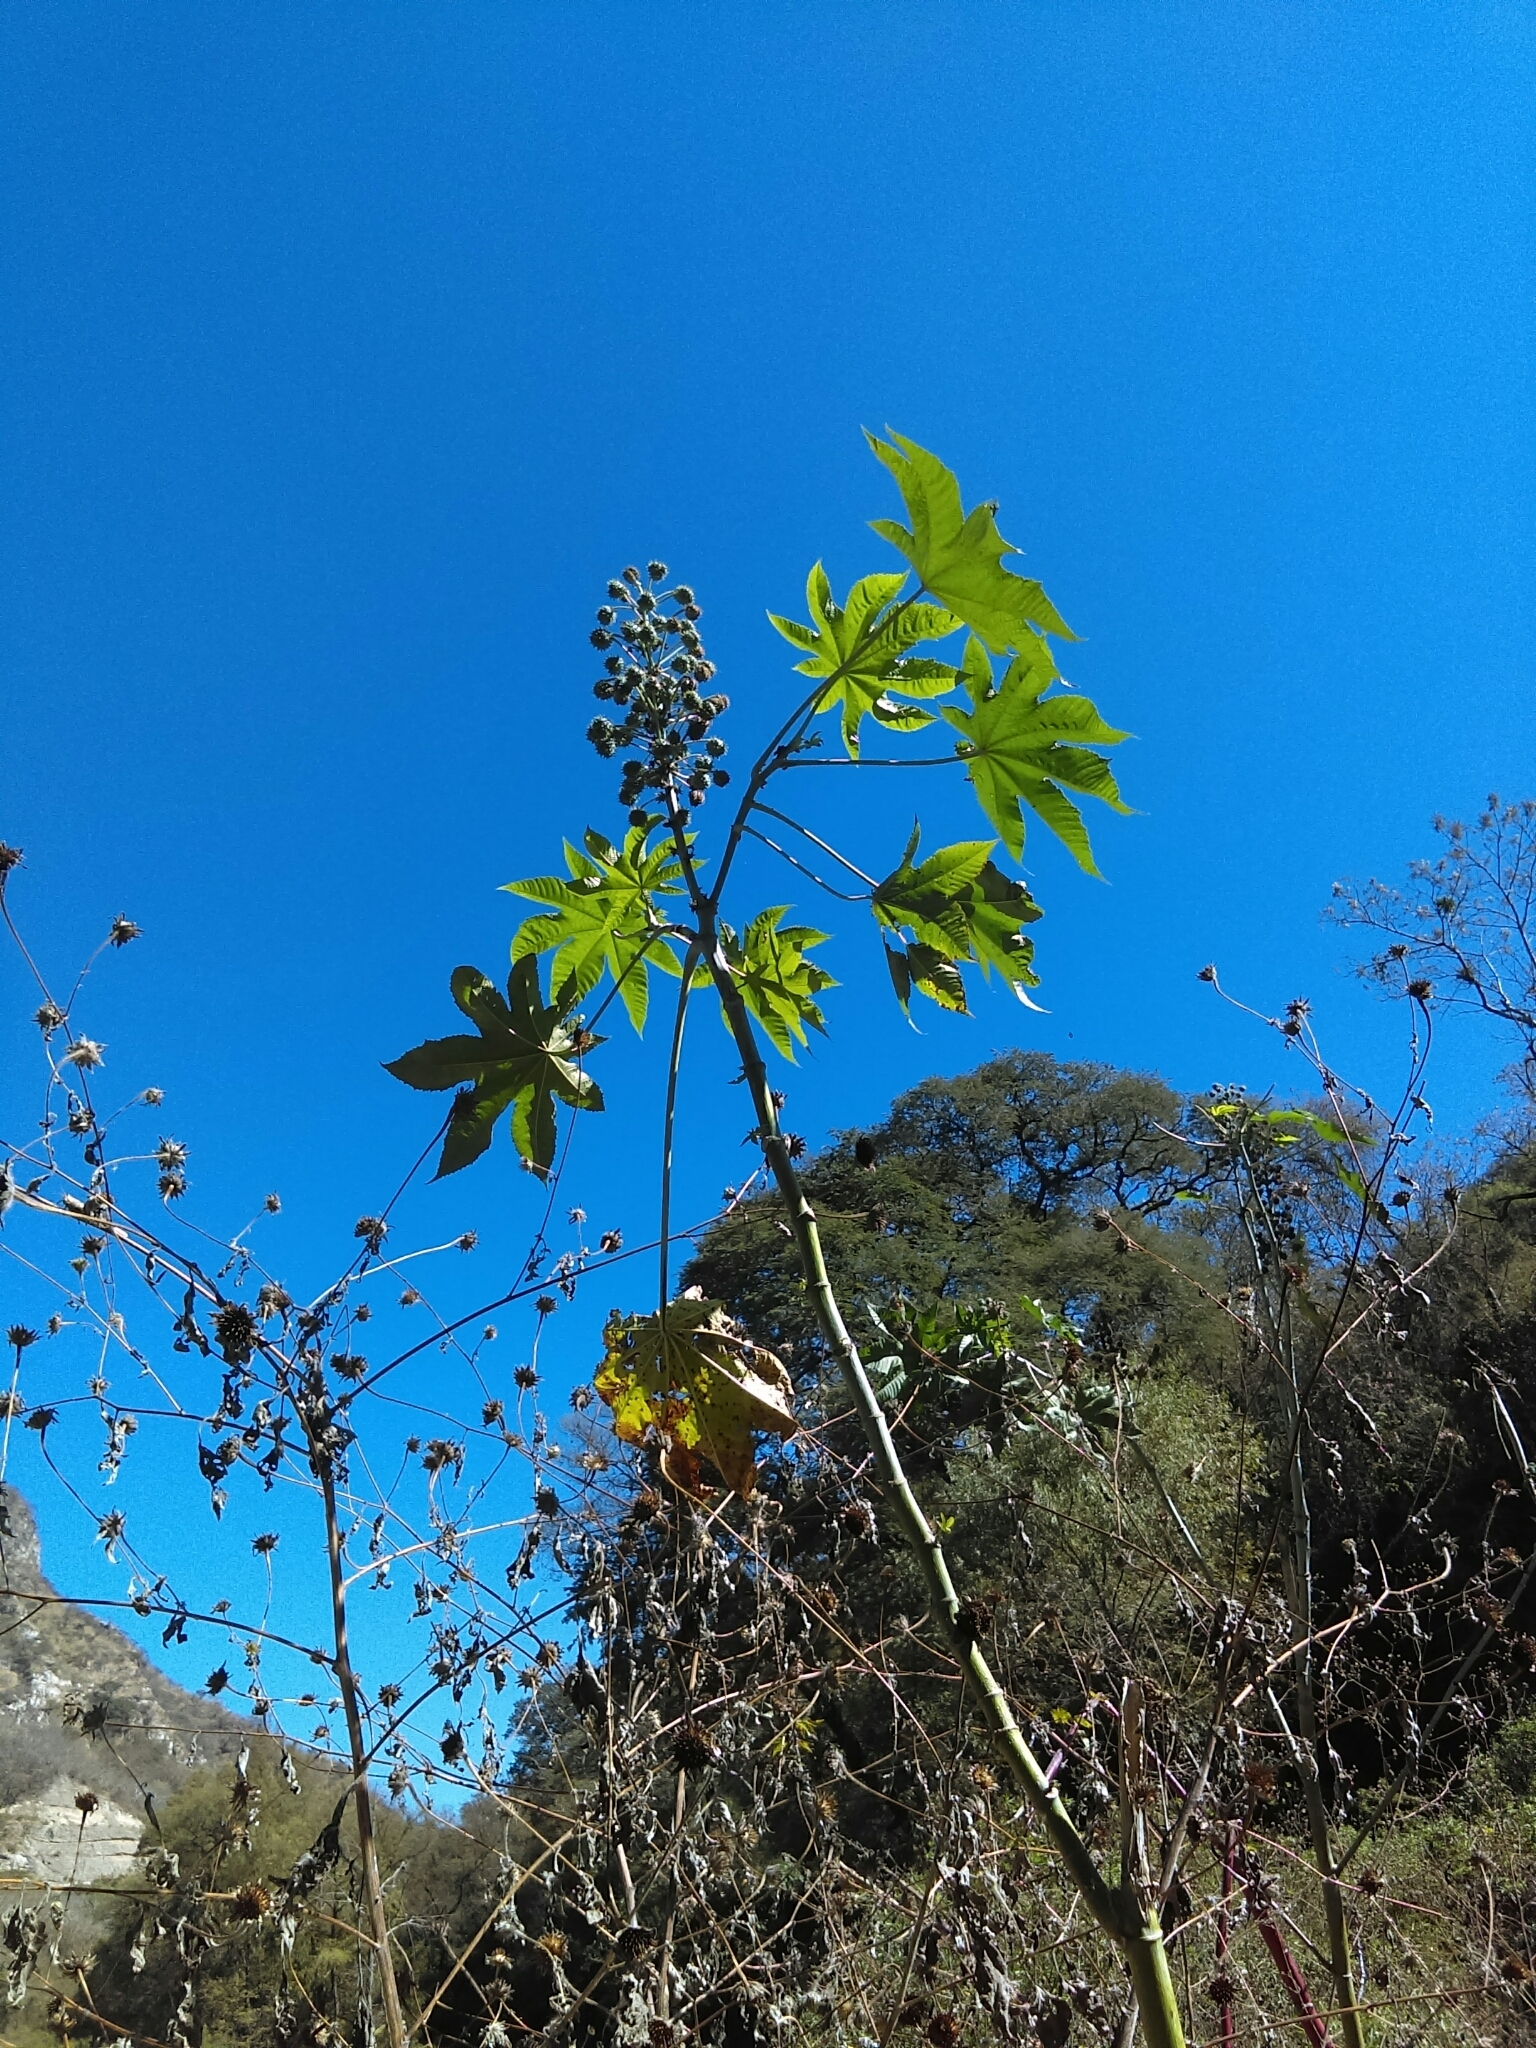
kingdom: Plantae
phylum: Tracheophyta
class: Magnoliopsida
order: Malpighiales
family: Euphorbiaceae
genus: Ricinus
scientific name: Ricinus communis
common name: Castor-oil-plant
